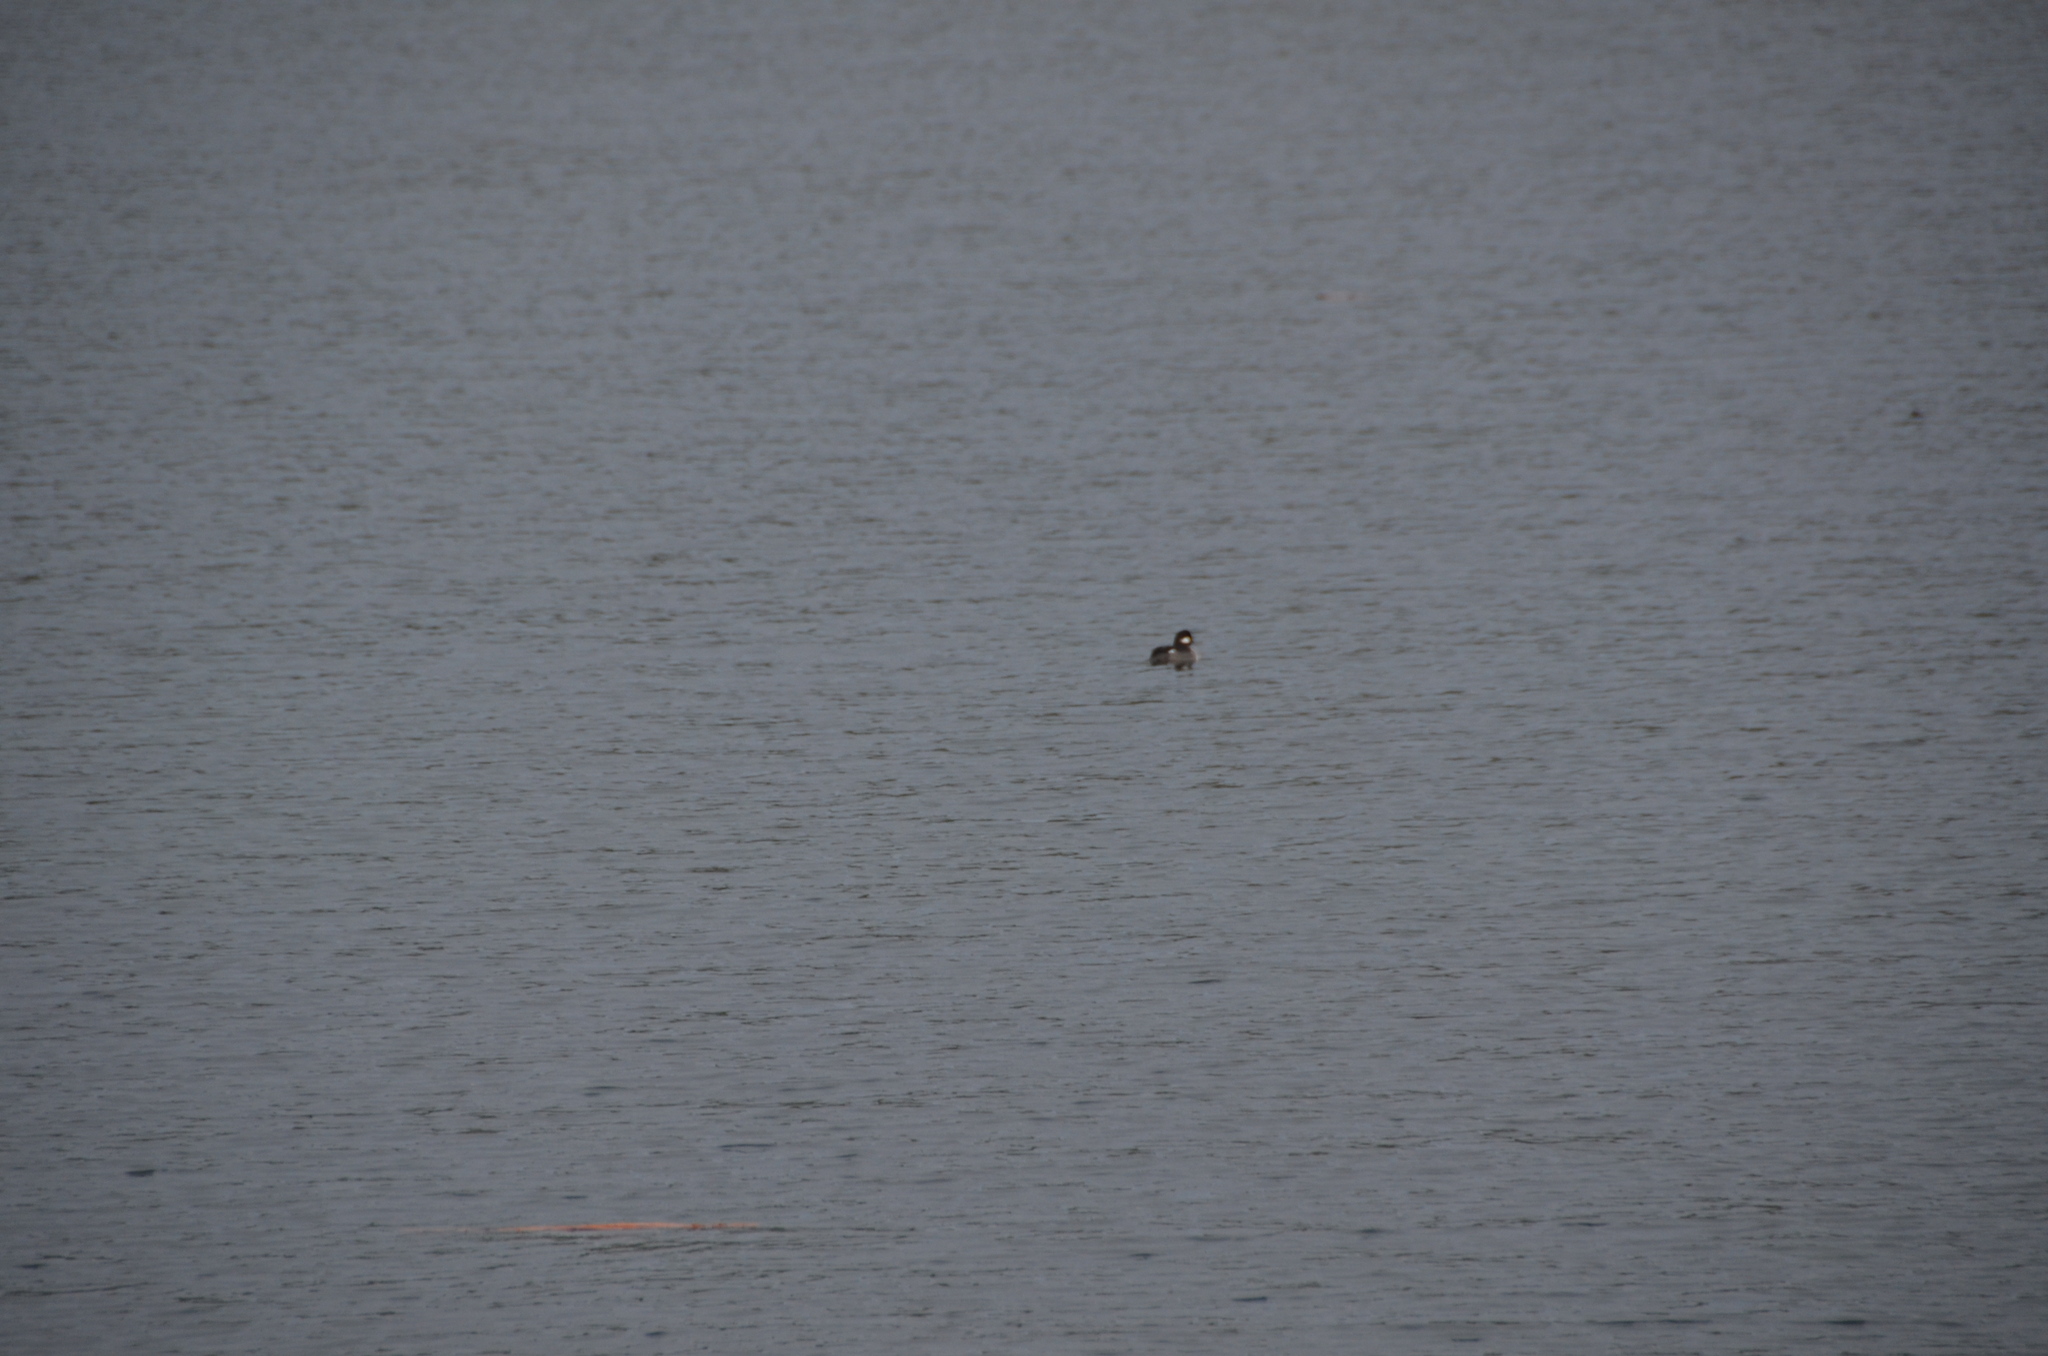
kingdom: Animalia
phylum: Chordata
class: Aves
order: Anseriformes
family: Anatidae
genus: Bucephala
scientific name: Bucephala albeola
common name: Bufflehead
